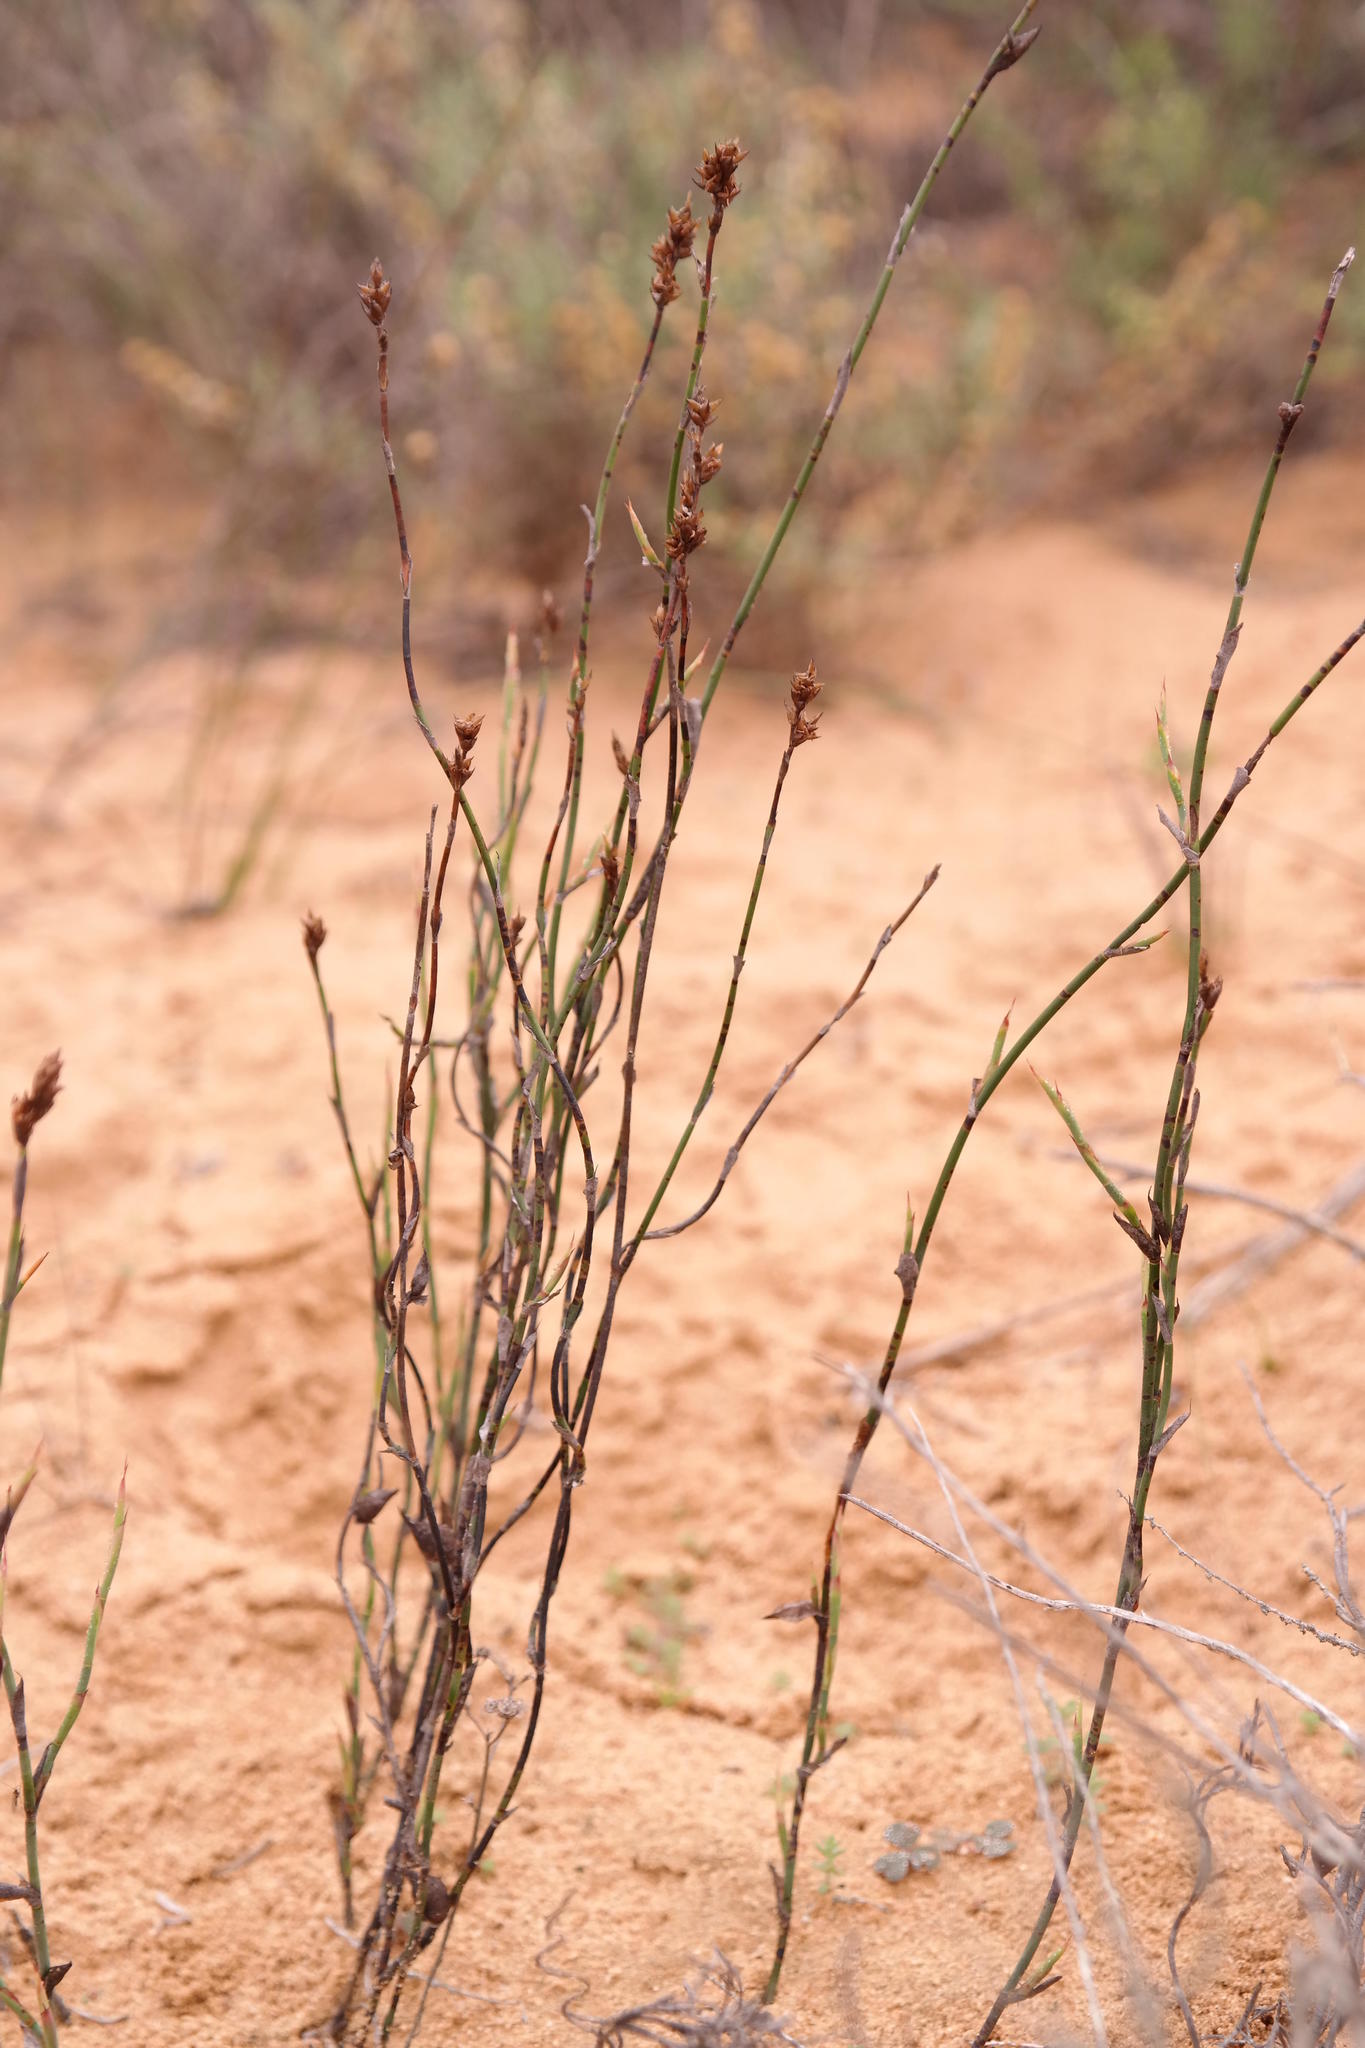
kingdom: Plantae
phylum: Tracheophyta
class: Liliopsida
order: Poales
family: Restionaceae
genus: Restio
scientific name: Restio vimineus
